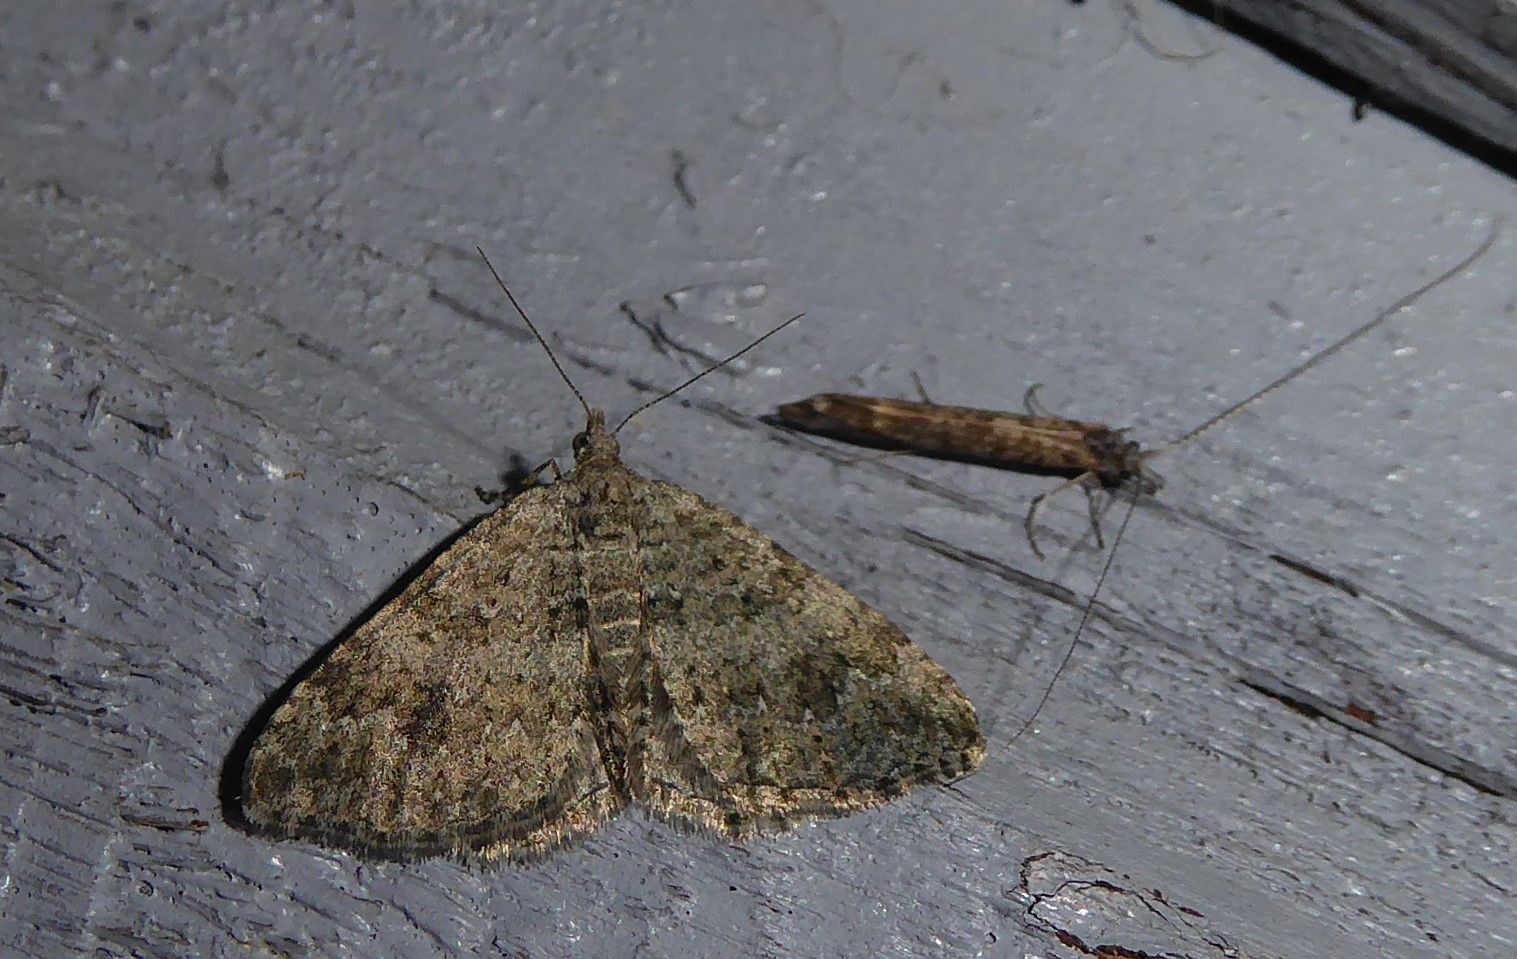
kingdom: Animalia
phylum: Arthropoda
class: Insecta
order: Lepidoptera
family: Geometridae
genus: Helastia
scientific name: Helastia corcularia
